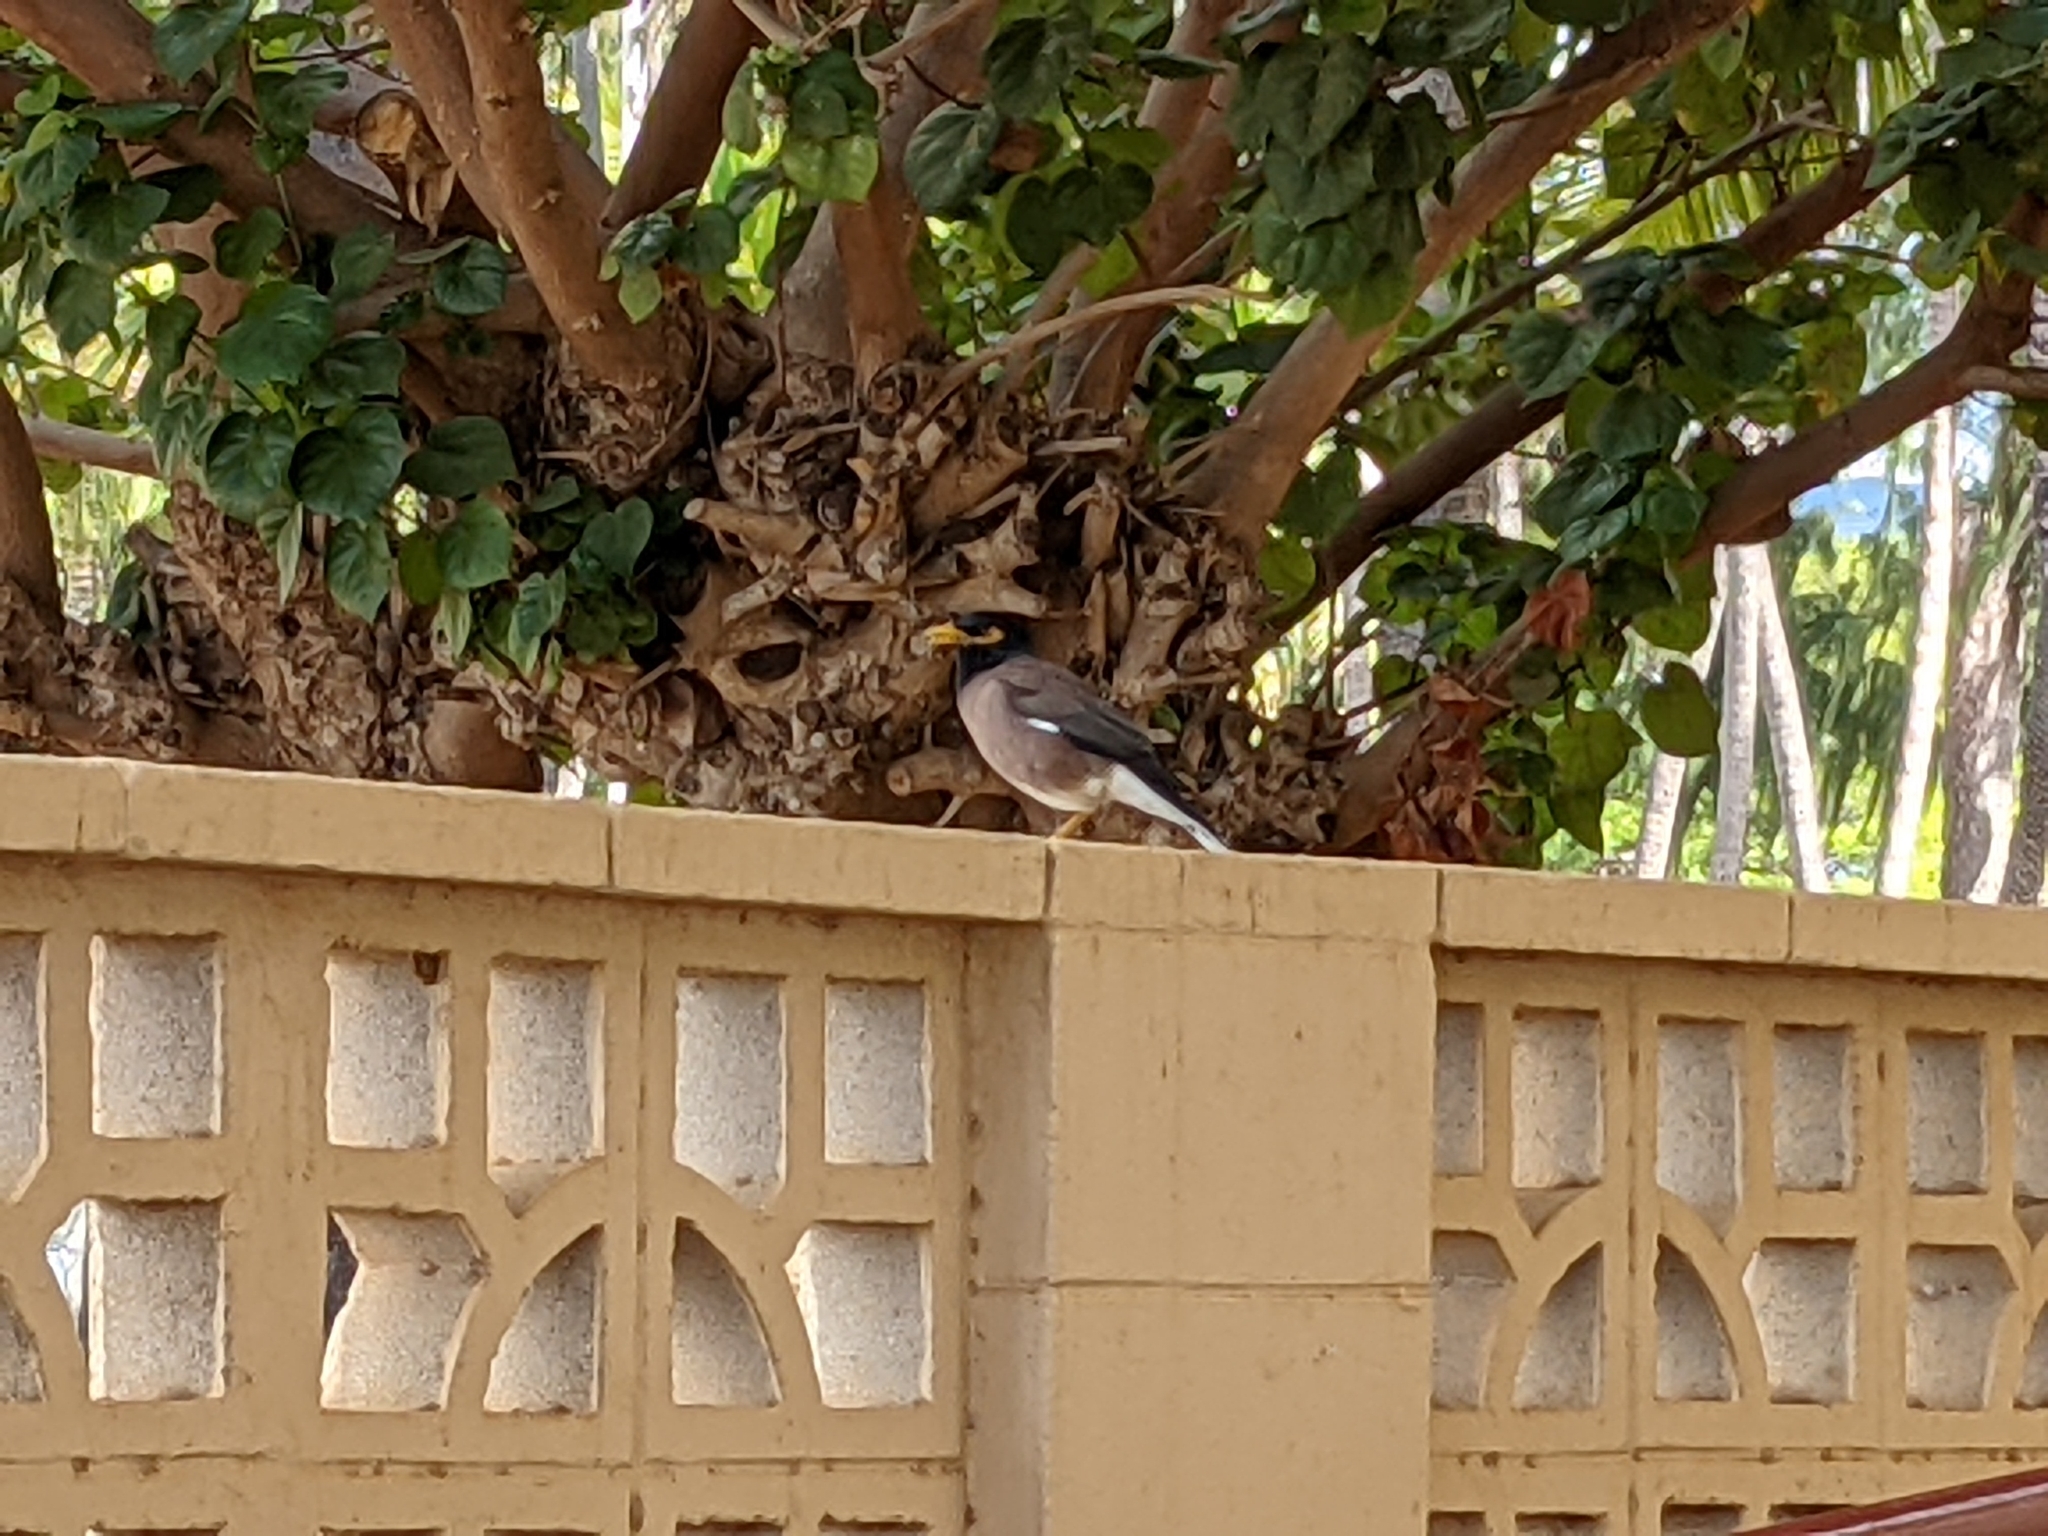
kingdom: Animalia
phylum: Chordata
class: Aves
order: Passeriformes
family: Sturnidae
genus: Acridotheres
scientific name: Acridotheres tristis
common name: Common myna
